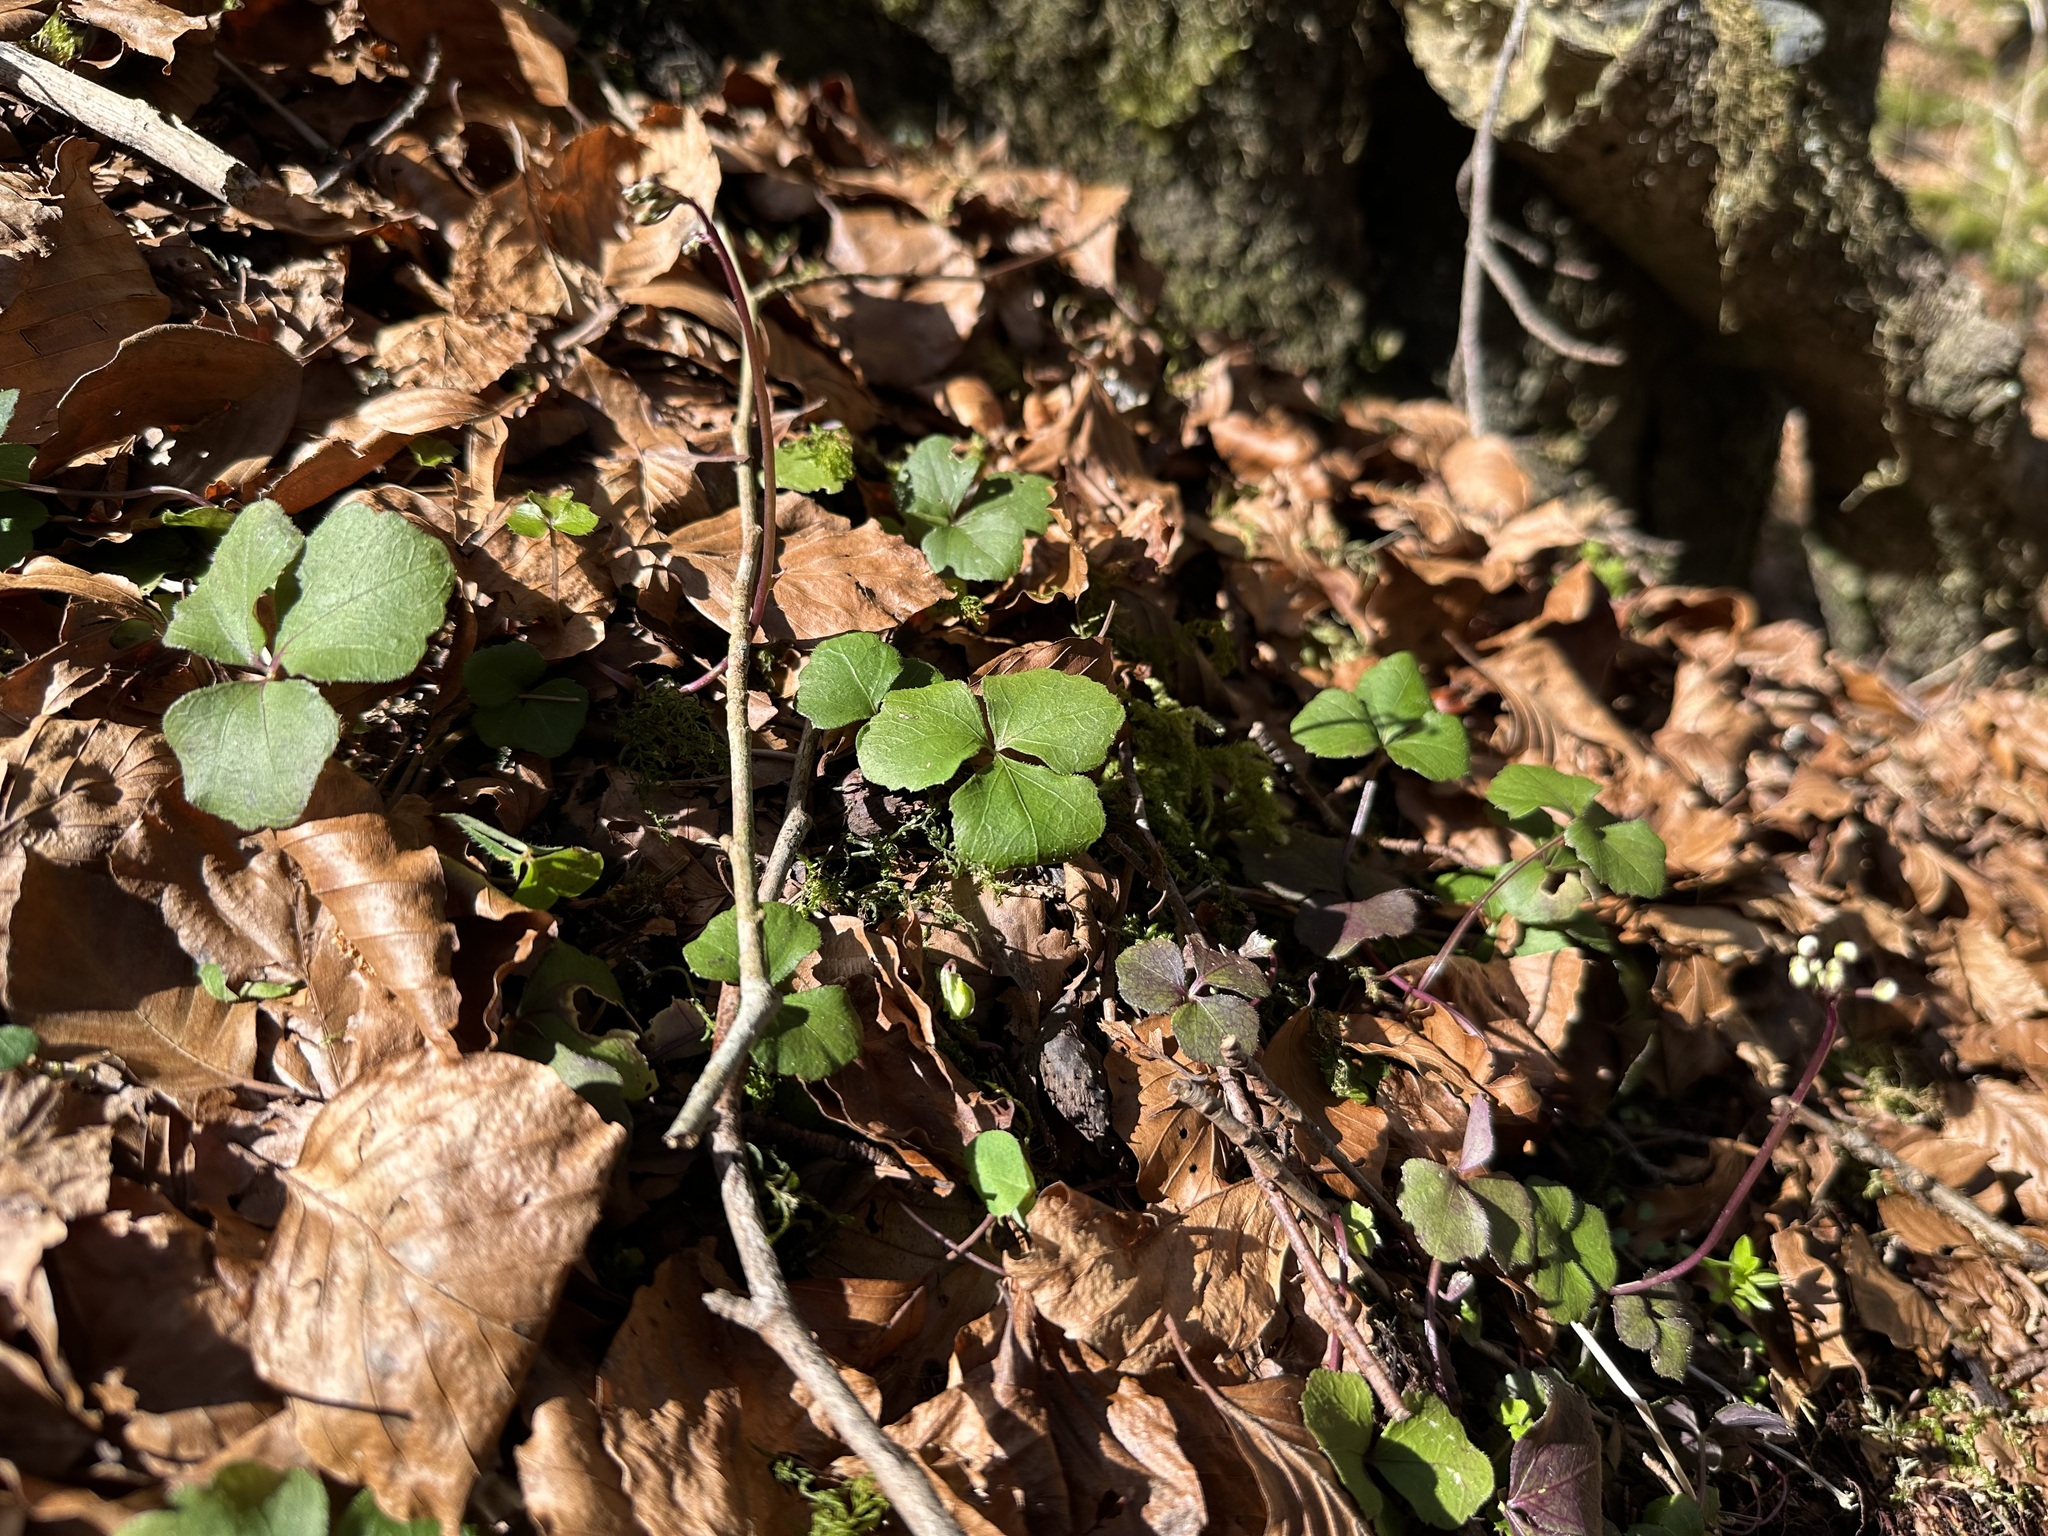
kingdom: Plantae
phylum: Tracheophyta
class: Magnoliopsida
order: Brassicales
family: Brassicaceae
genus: Cardamine
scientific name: Cardamine trifolia
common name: Trefoil cress
